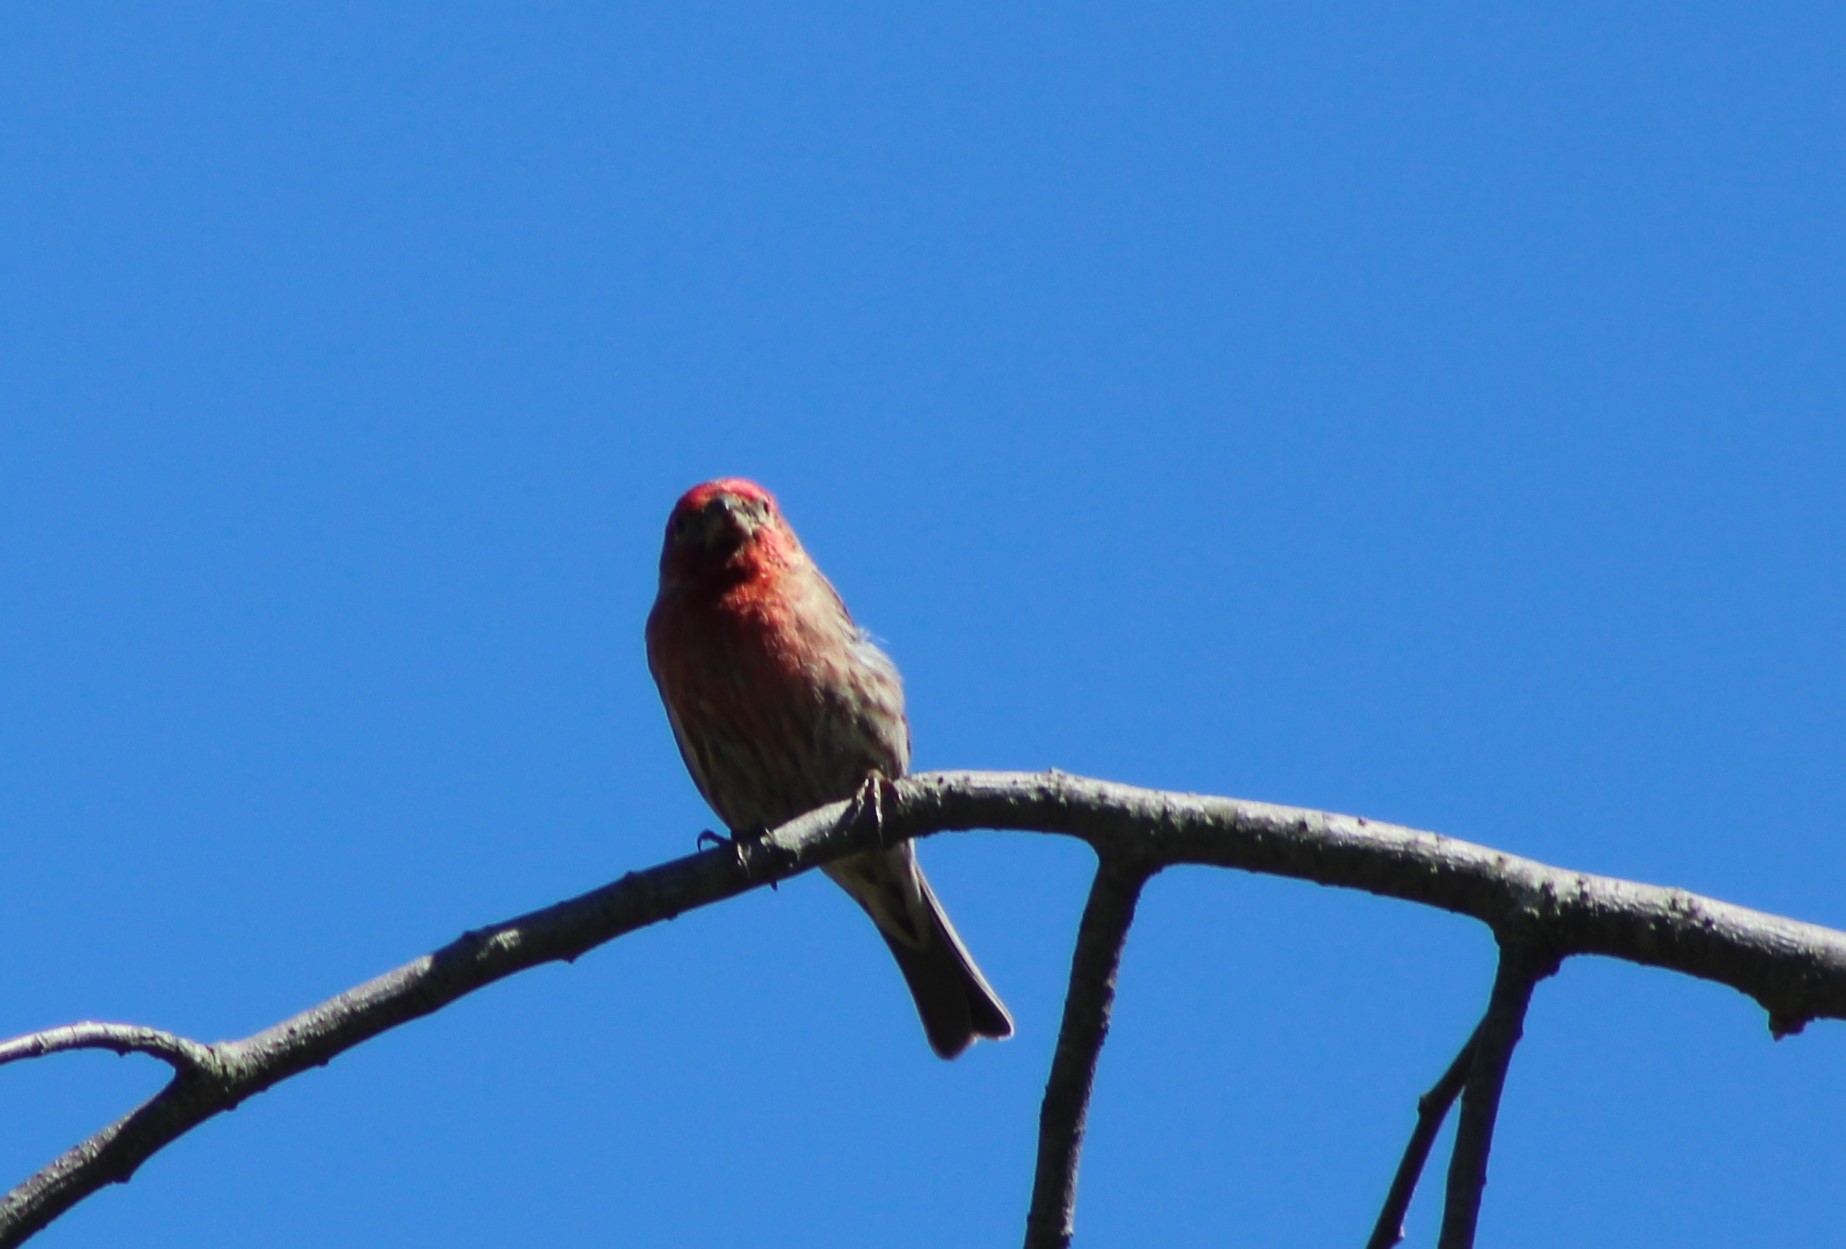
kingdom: Animalia
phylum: Chordata
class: Aves
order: Passeriformes
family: Fringillidae
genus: Haemorhous
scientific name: Haemorhous mexicanus
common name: House finch
